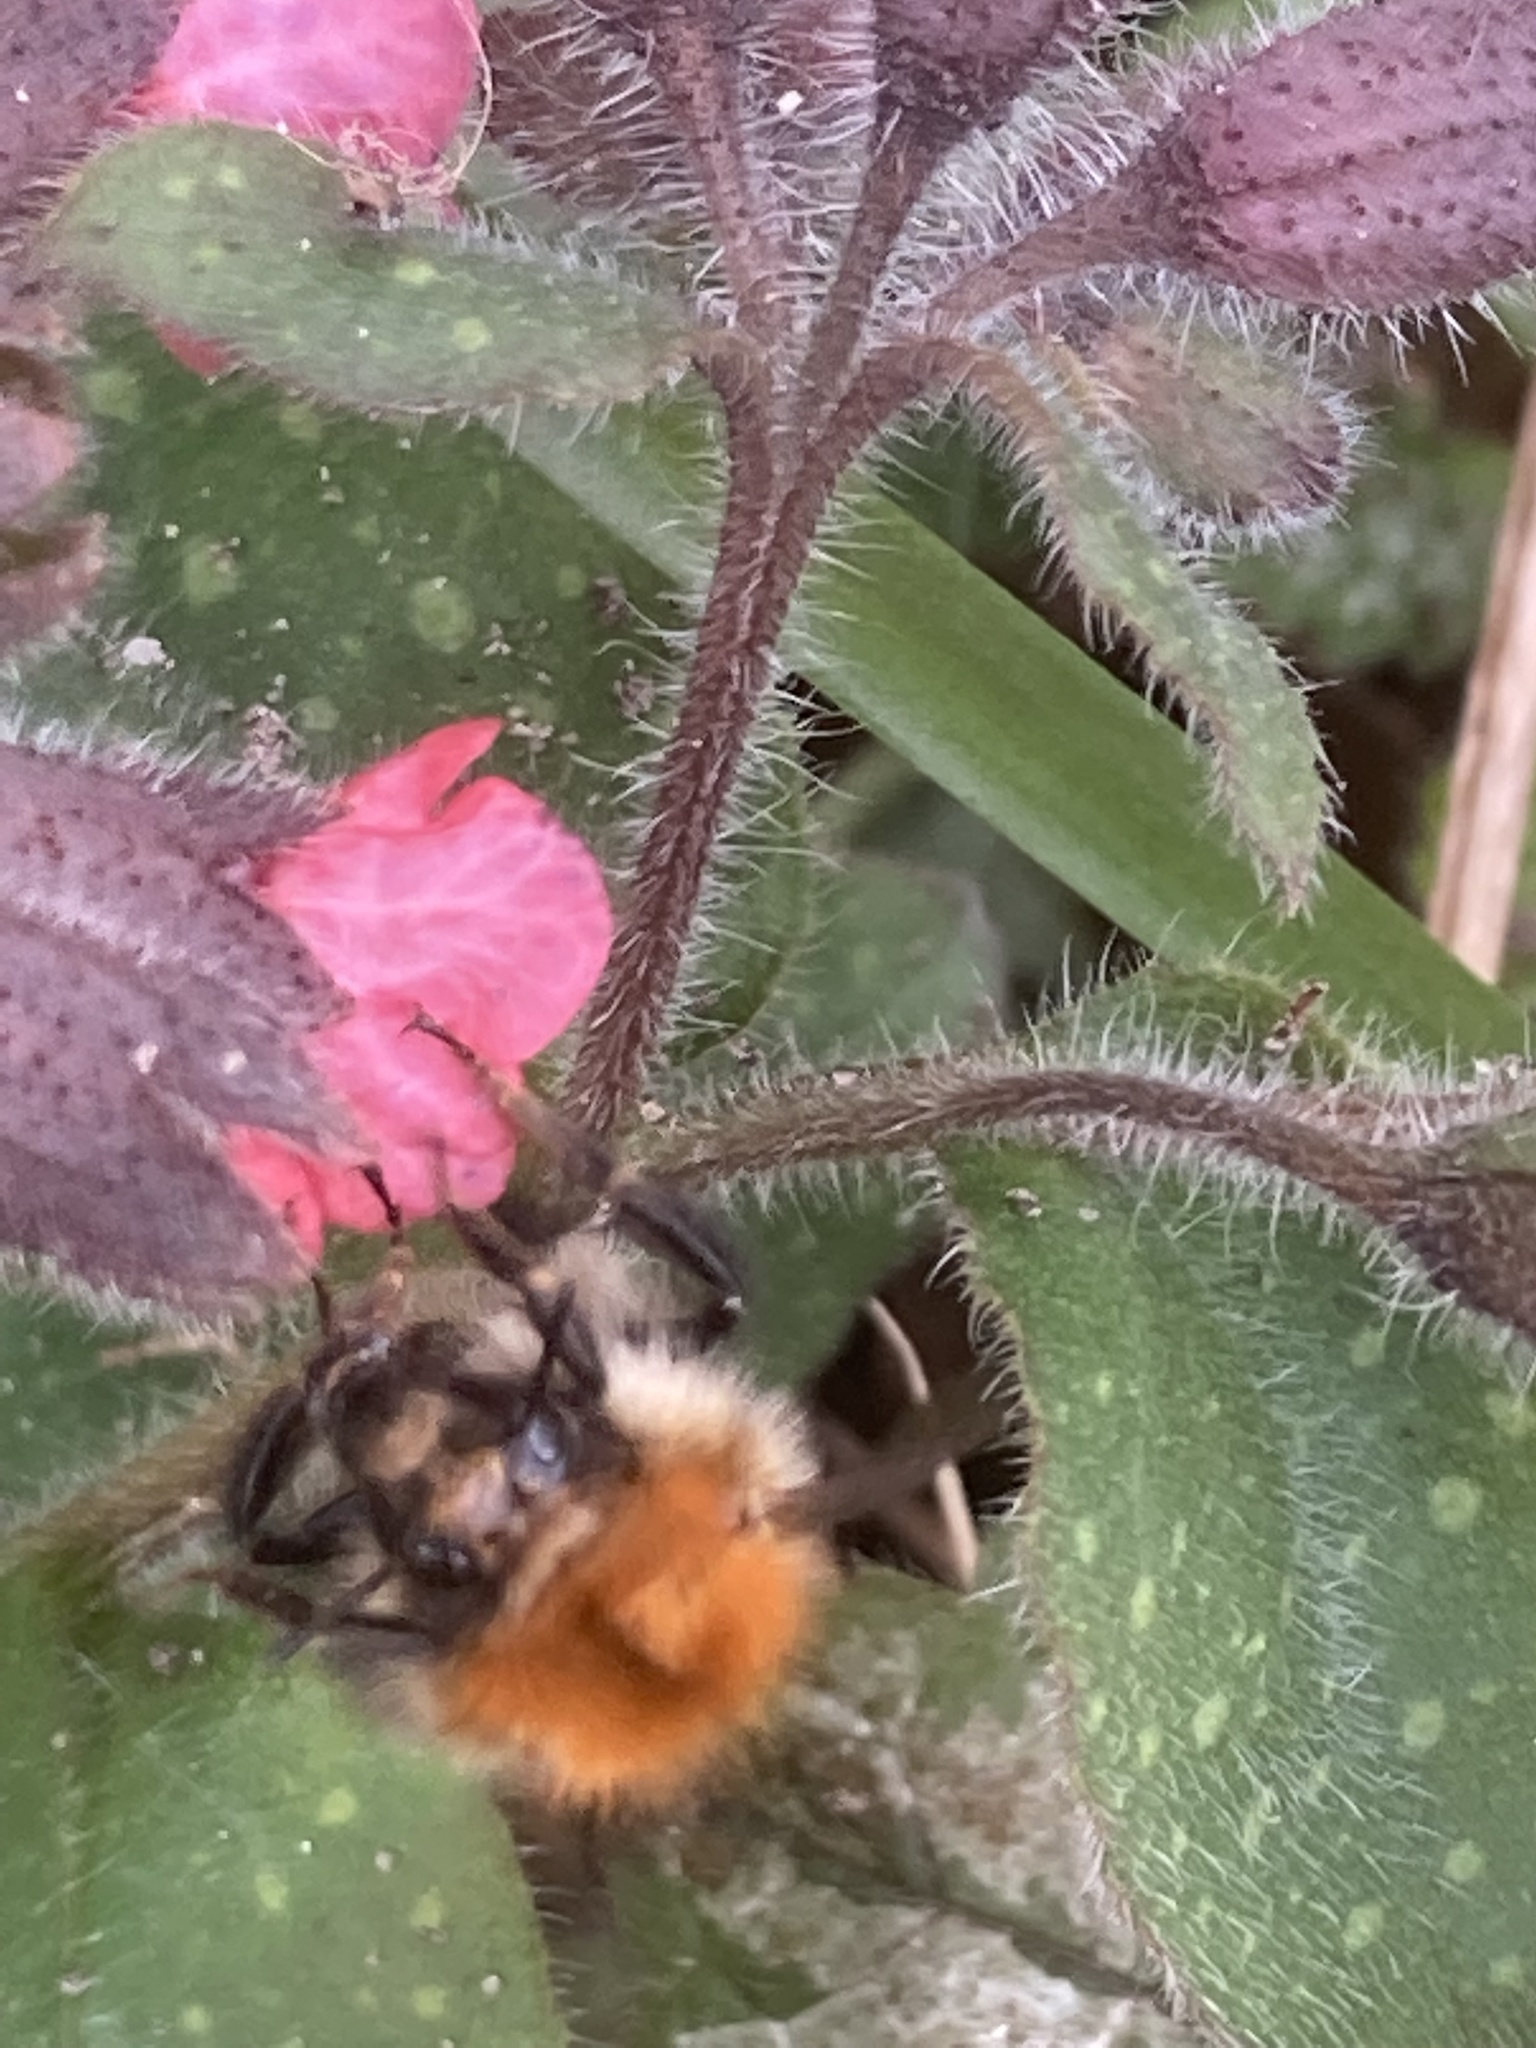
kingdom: Animalia
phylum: Arthropoda
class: Insecta
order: Hymenoptera
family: Apidae
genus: Bombus
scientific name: Bombus pascuorum
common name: Common carder bee
